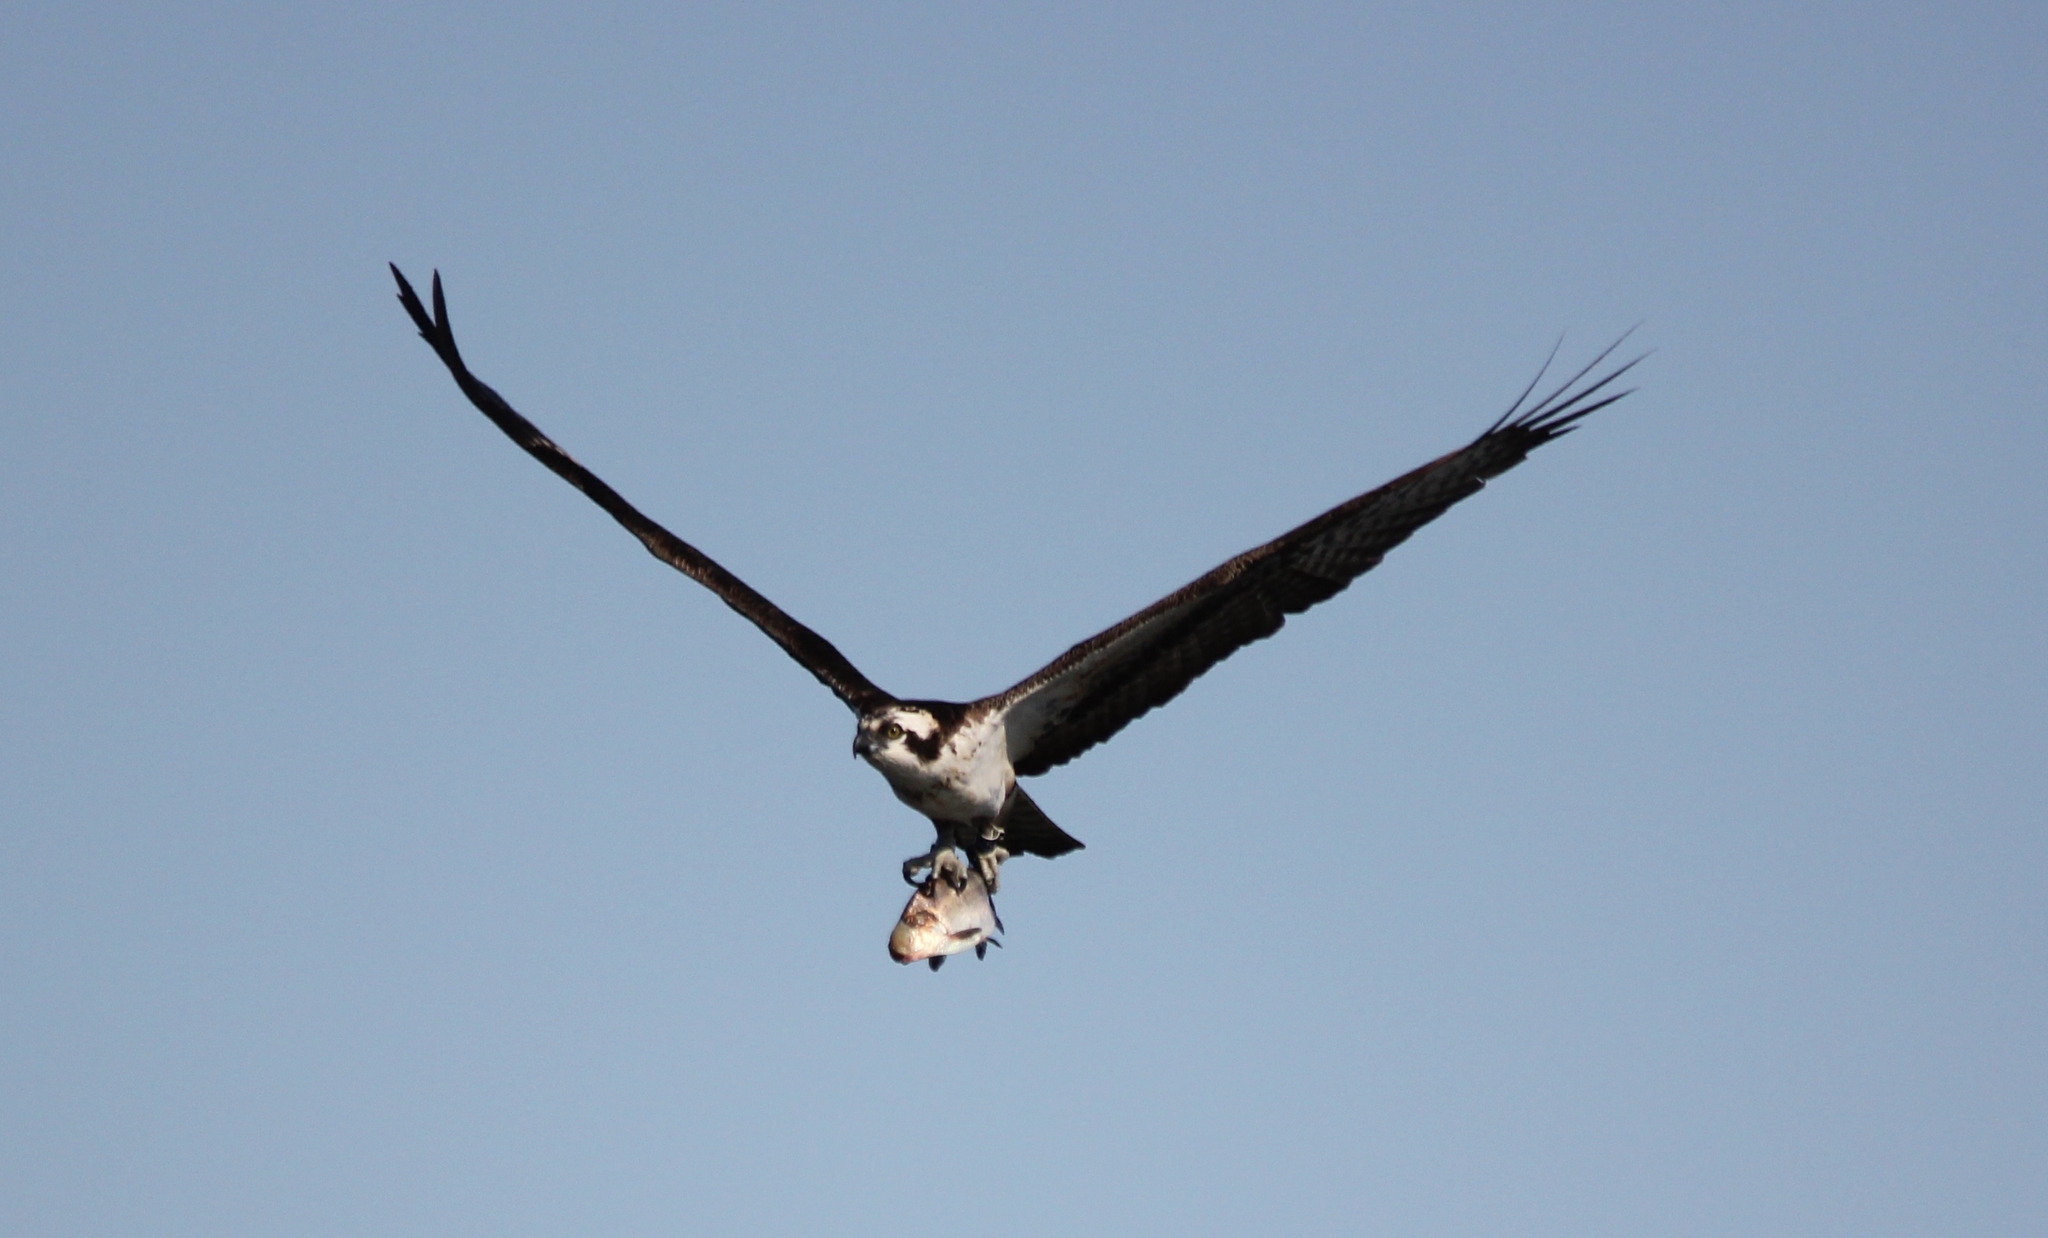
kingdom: Animalia
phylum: Chordata
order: Clupeiformes
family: Clupeidae
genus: Dorosoma
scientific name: Dorosoma cepedianum
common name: Gizzard shad
